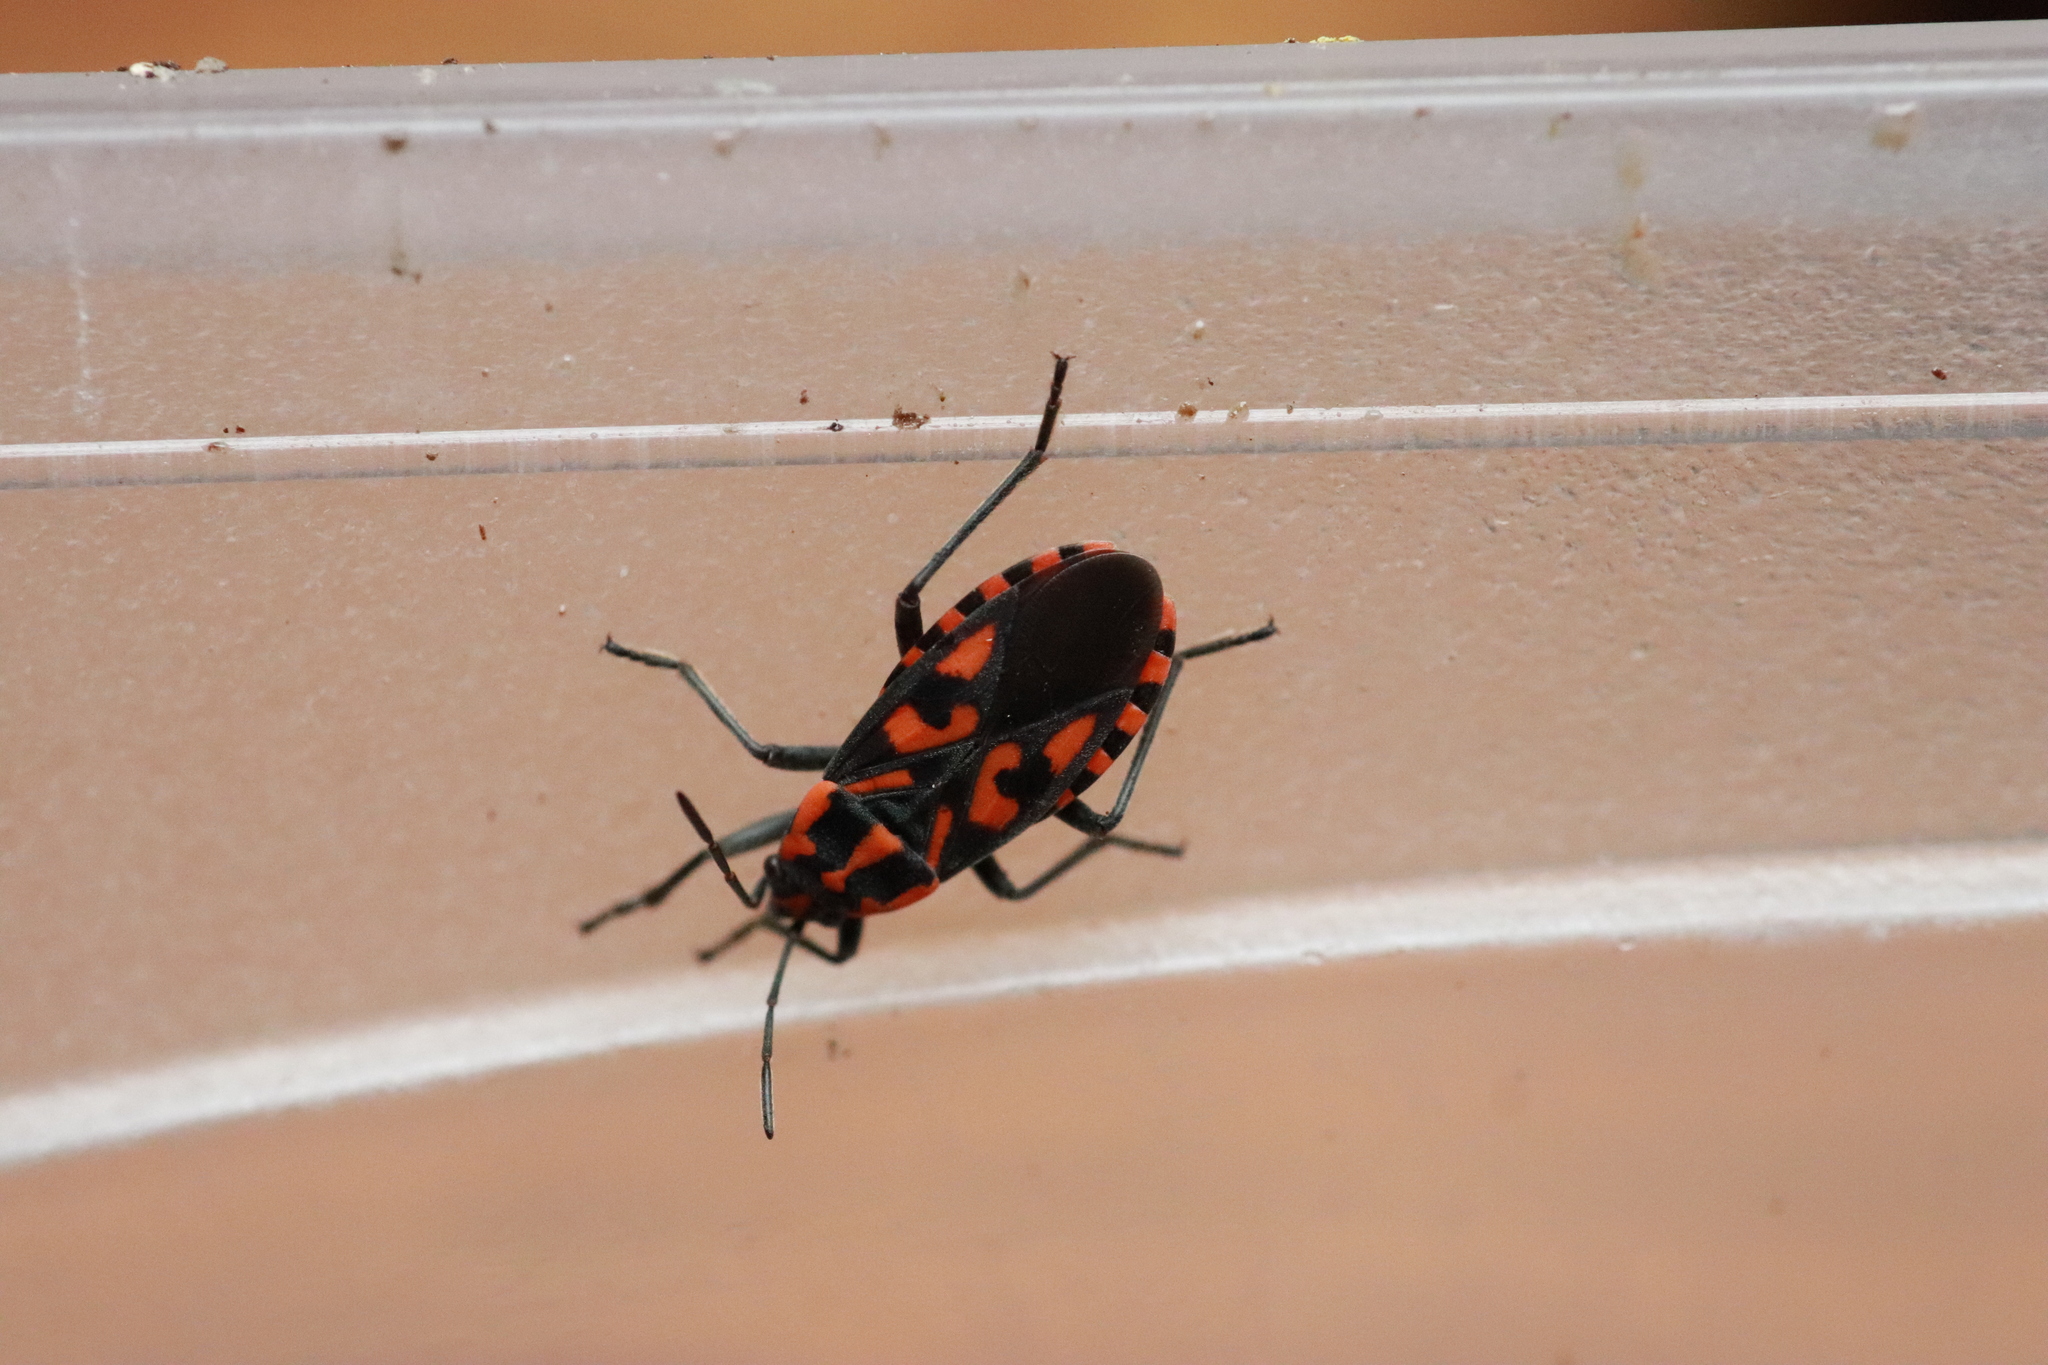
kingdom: Animalia
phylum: Arthropoda
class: Insecta
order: Hemiptera
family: Lygaeidae
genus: Spilostethus
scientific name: Spilostethus saxatilis
